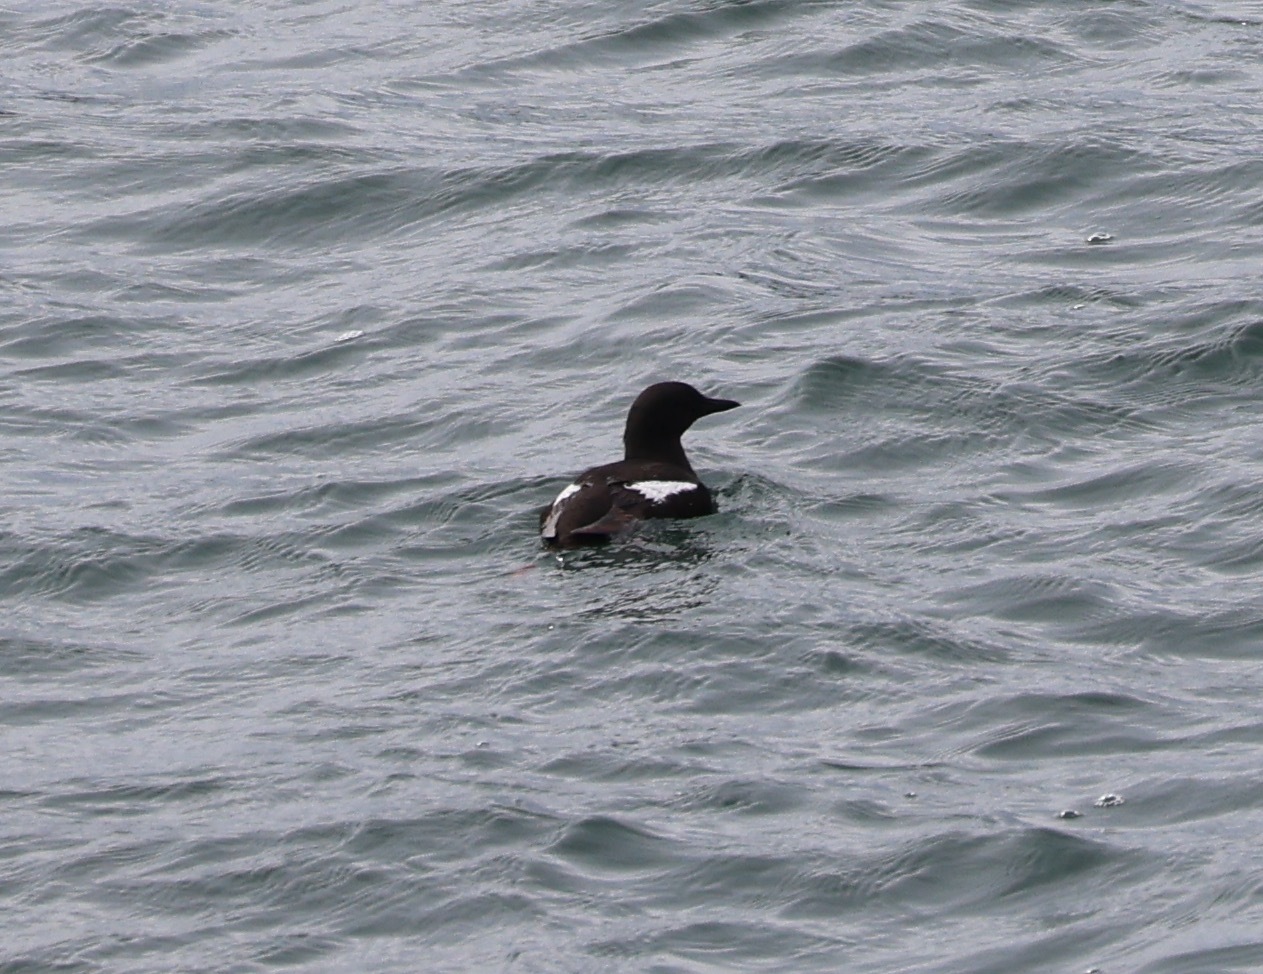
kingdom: Animalia
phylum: Chordata
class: Aves
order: Charadriiformes
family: Alcidae
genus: Cepphus
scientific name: Cepphus grylle
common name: Black guillemot
